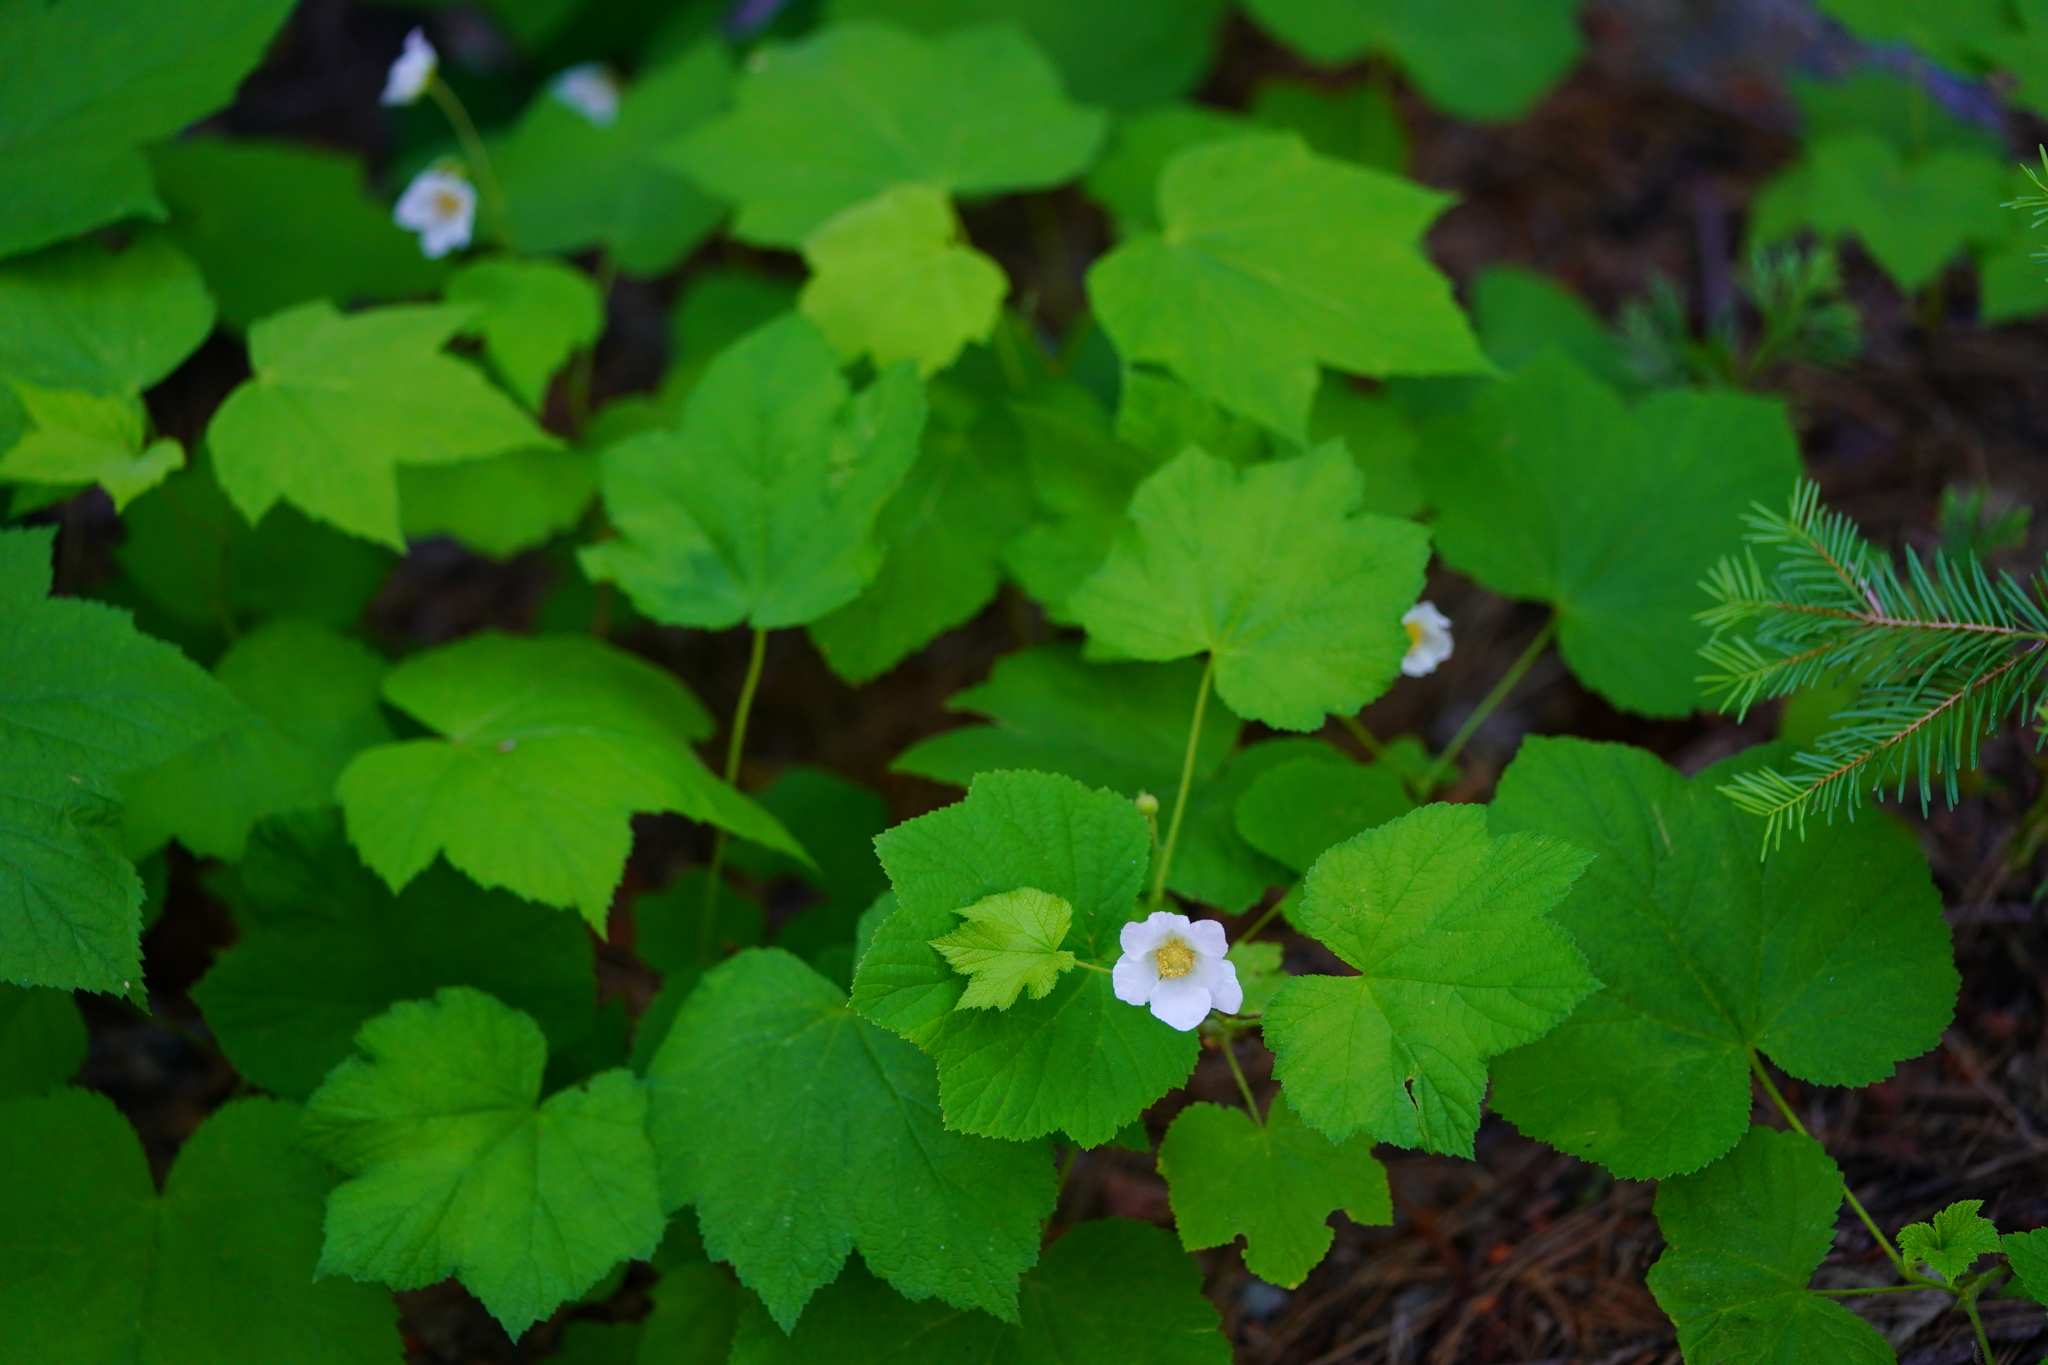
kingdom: Plantae
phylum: Tracheophyta
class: Magnoliopsida
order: Rosales
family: Rosaceae
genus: Rubus
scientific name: Rubus parviflorus
